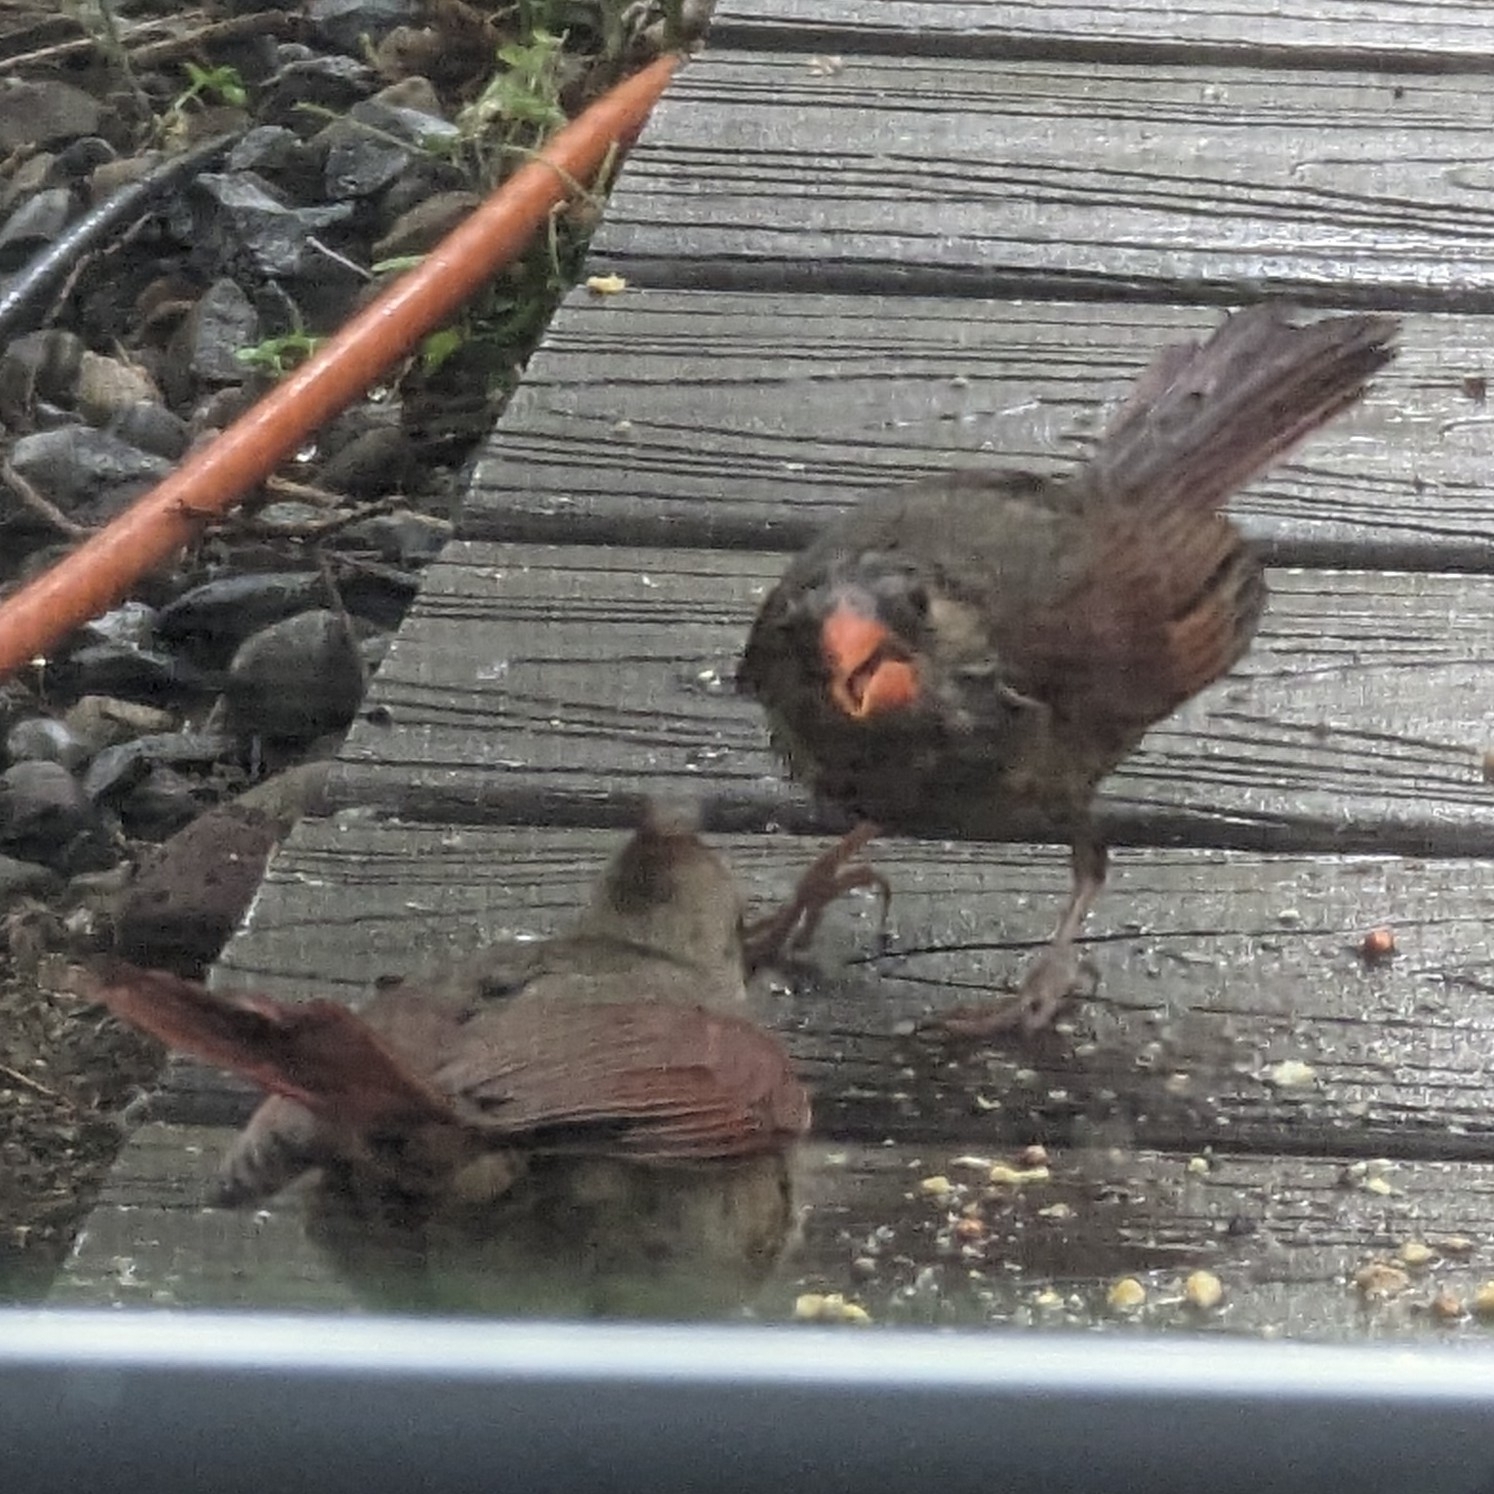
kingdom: Animalia
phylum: Chordata
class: Aves
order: Passeriformes
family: Cardinalidae
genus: Cardinalis
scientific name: Cardinalis cardinalis
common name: Northern cardinal
